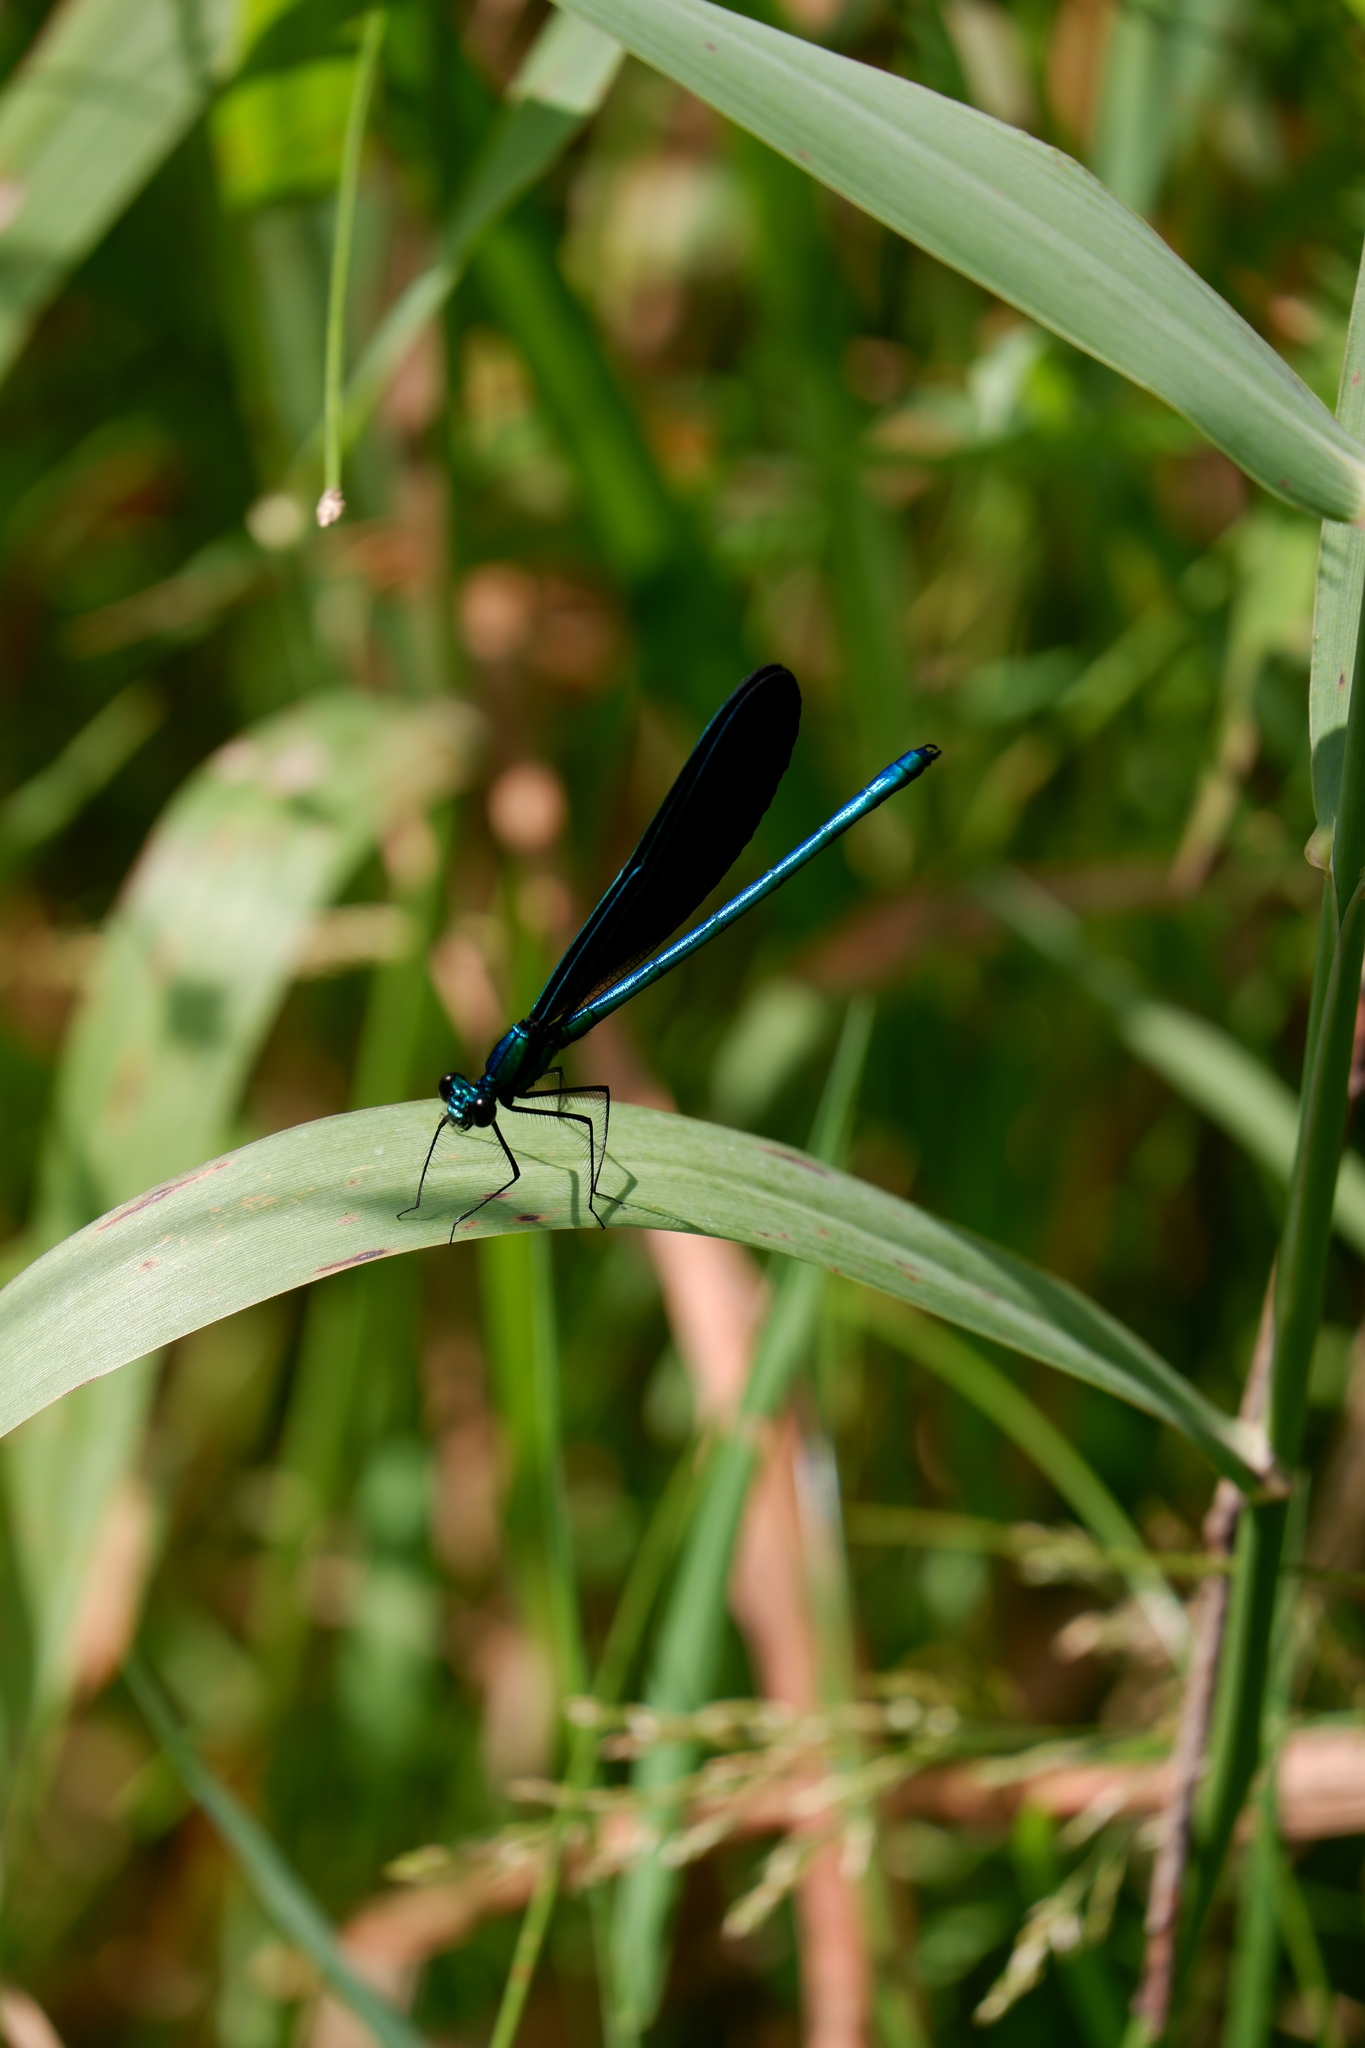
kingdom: Animalia
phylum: Arthropoda
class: Insecta
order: Odonata
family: Calopterygidae
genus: Calopteryx
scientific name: Calopteryx maculata
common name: Ebony jewelwing
